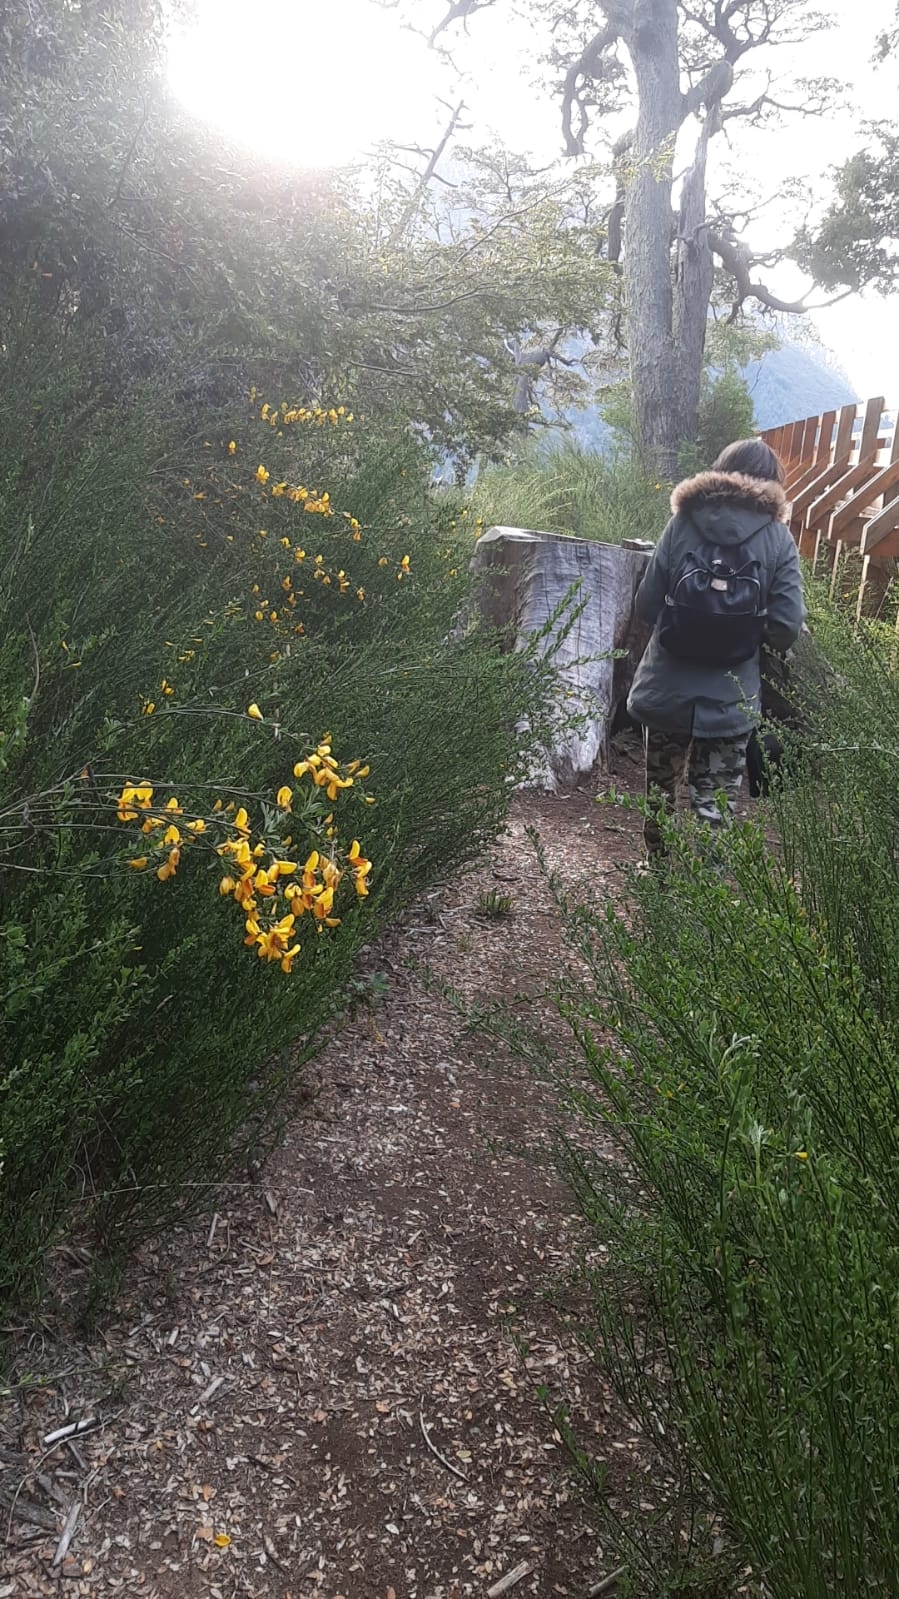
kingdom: Plantae
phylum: Tracheophyta
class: Magnoliopsida
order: Fabales
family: Fabaceae
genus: Cytisus
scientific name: Cytisus scoparius
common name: Scotch broom
